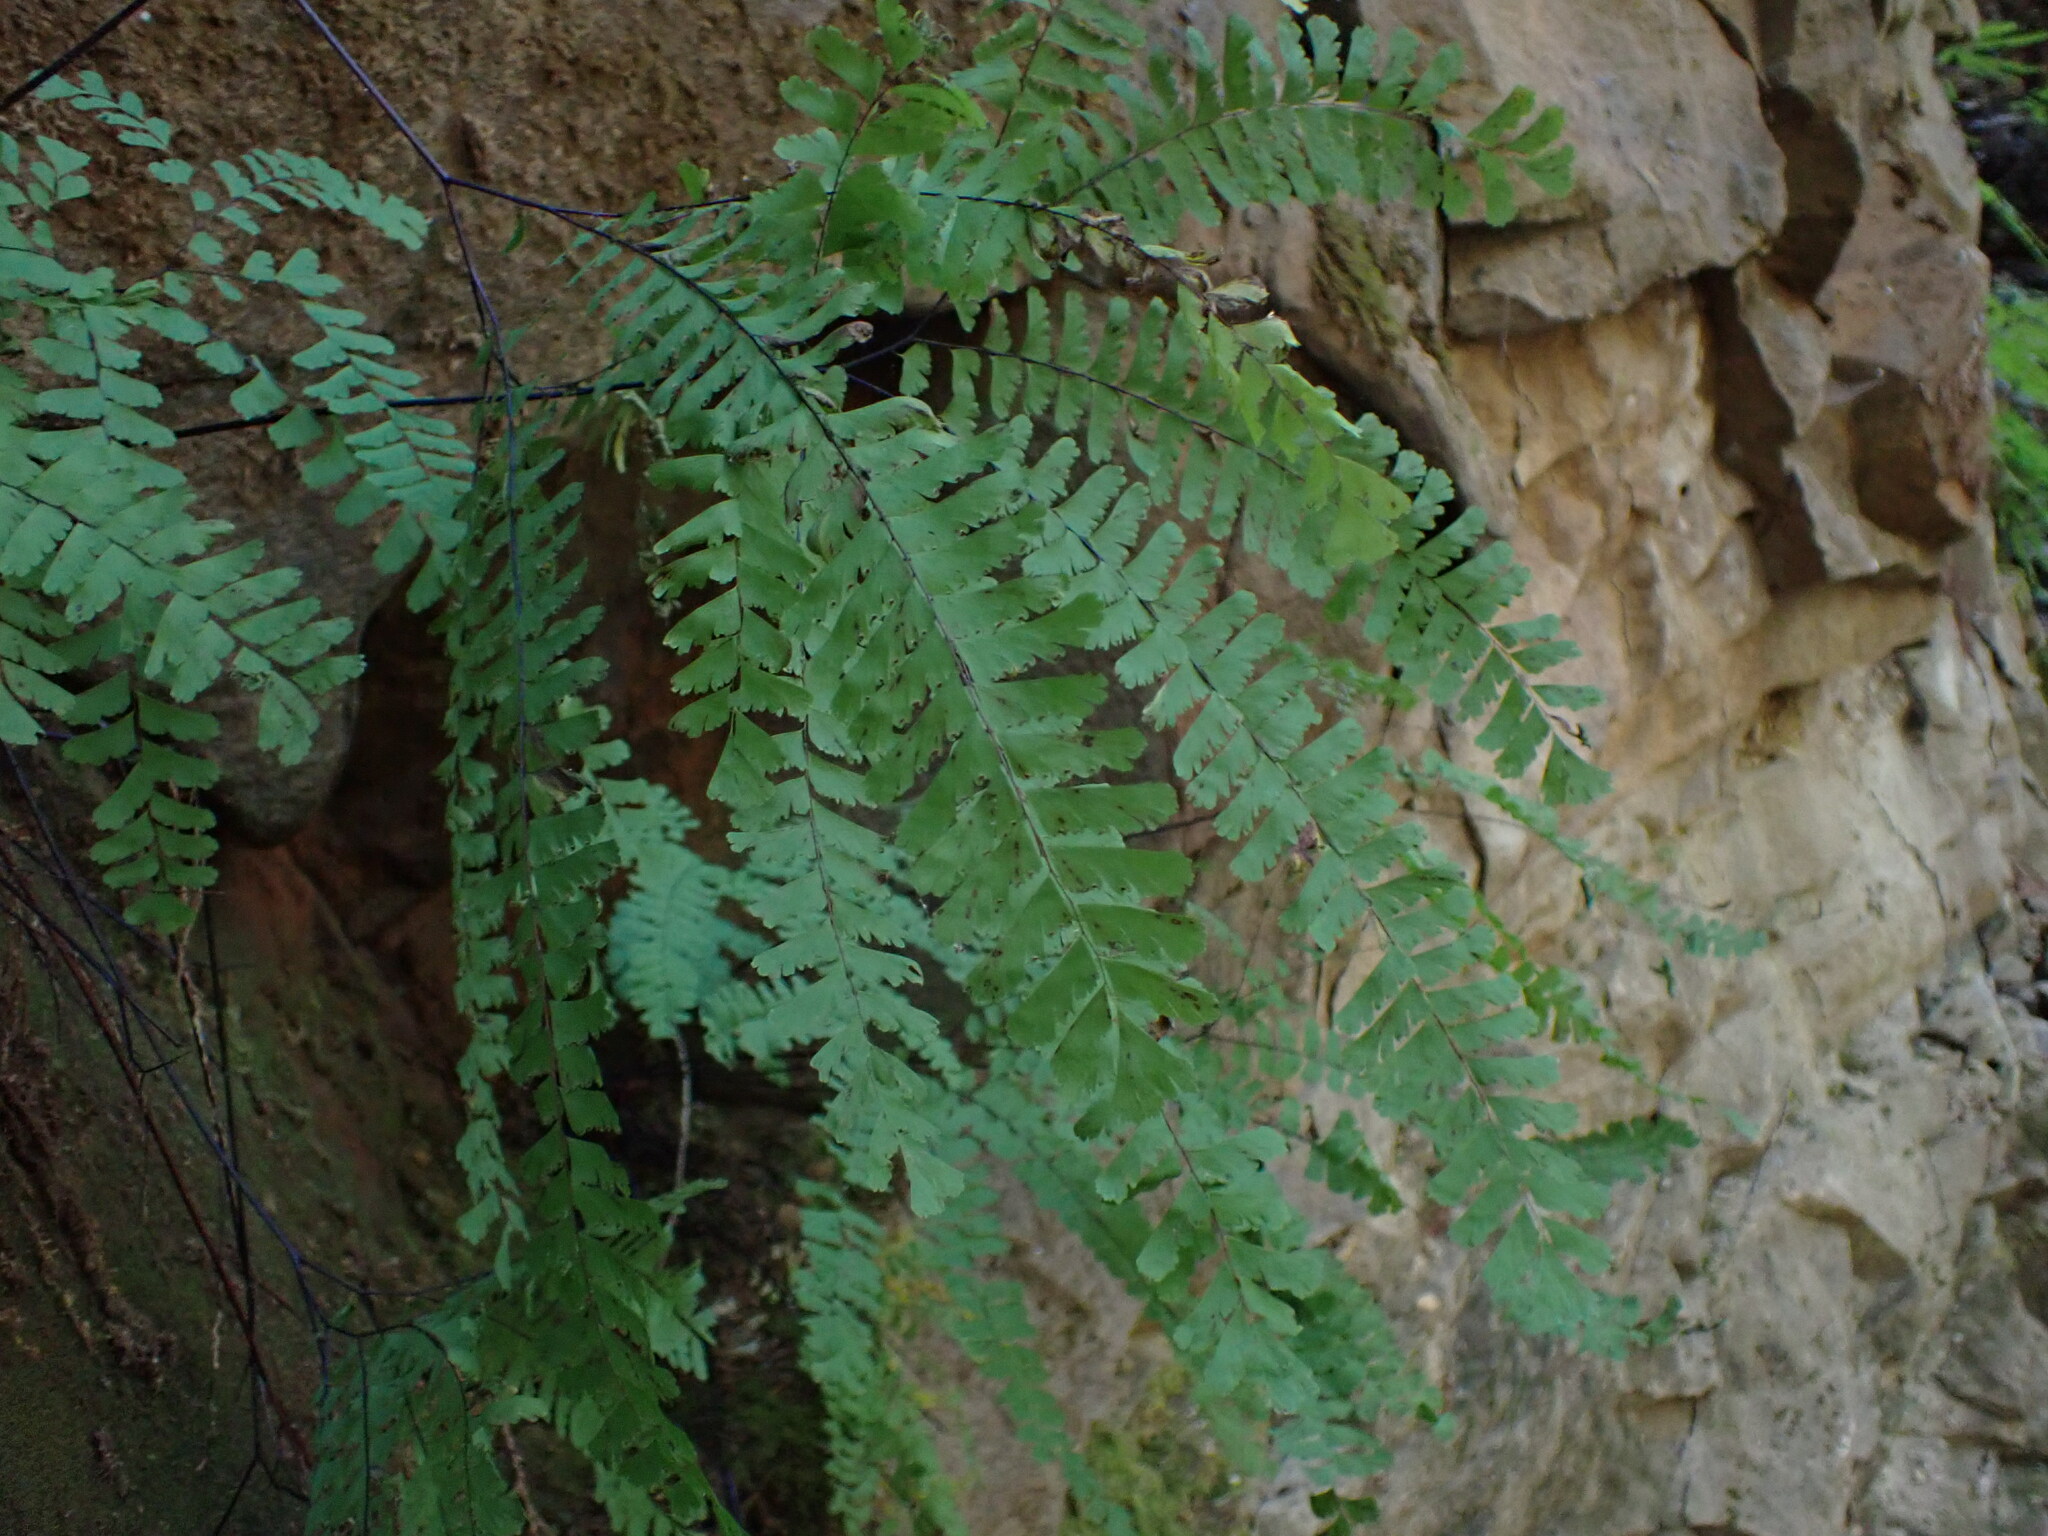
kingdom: Plantae
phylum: Tracheophyta
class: Polypodiopsida
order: Polypodiales
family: Pteridaceae
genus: Adiantum
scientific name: Adiantum aleuticum
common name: Aleutian maidenhair fern
